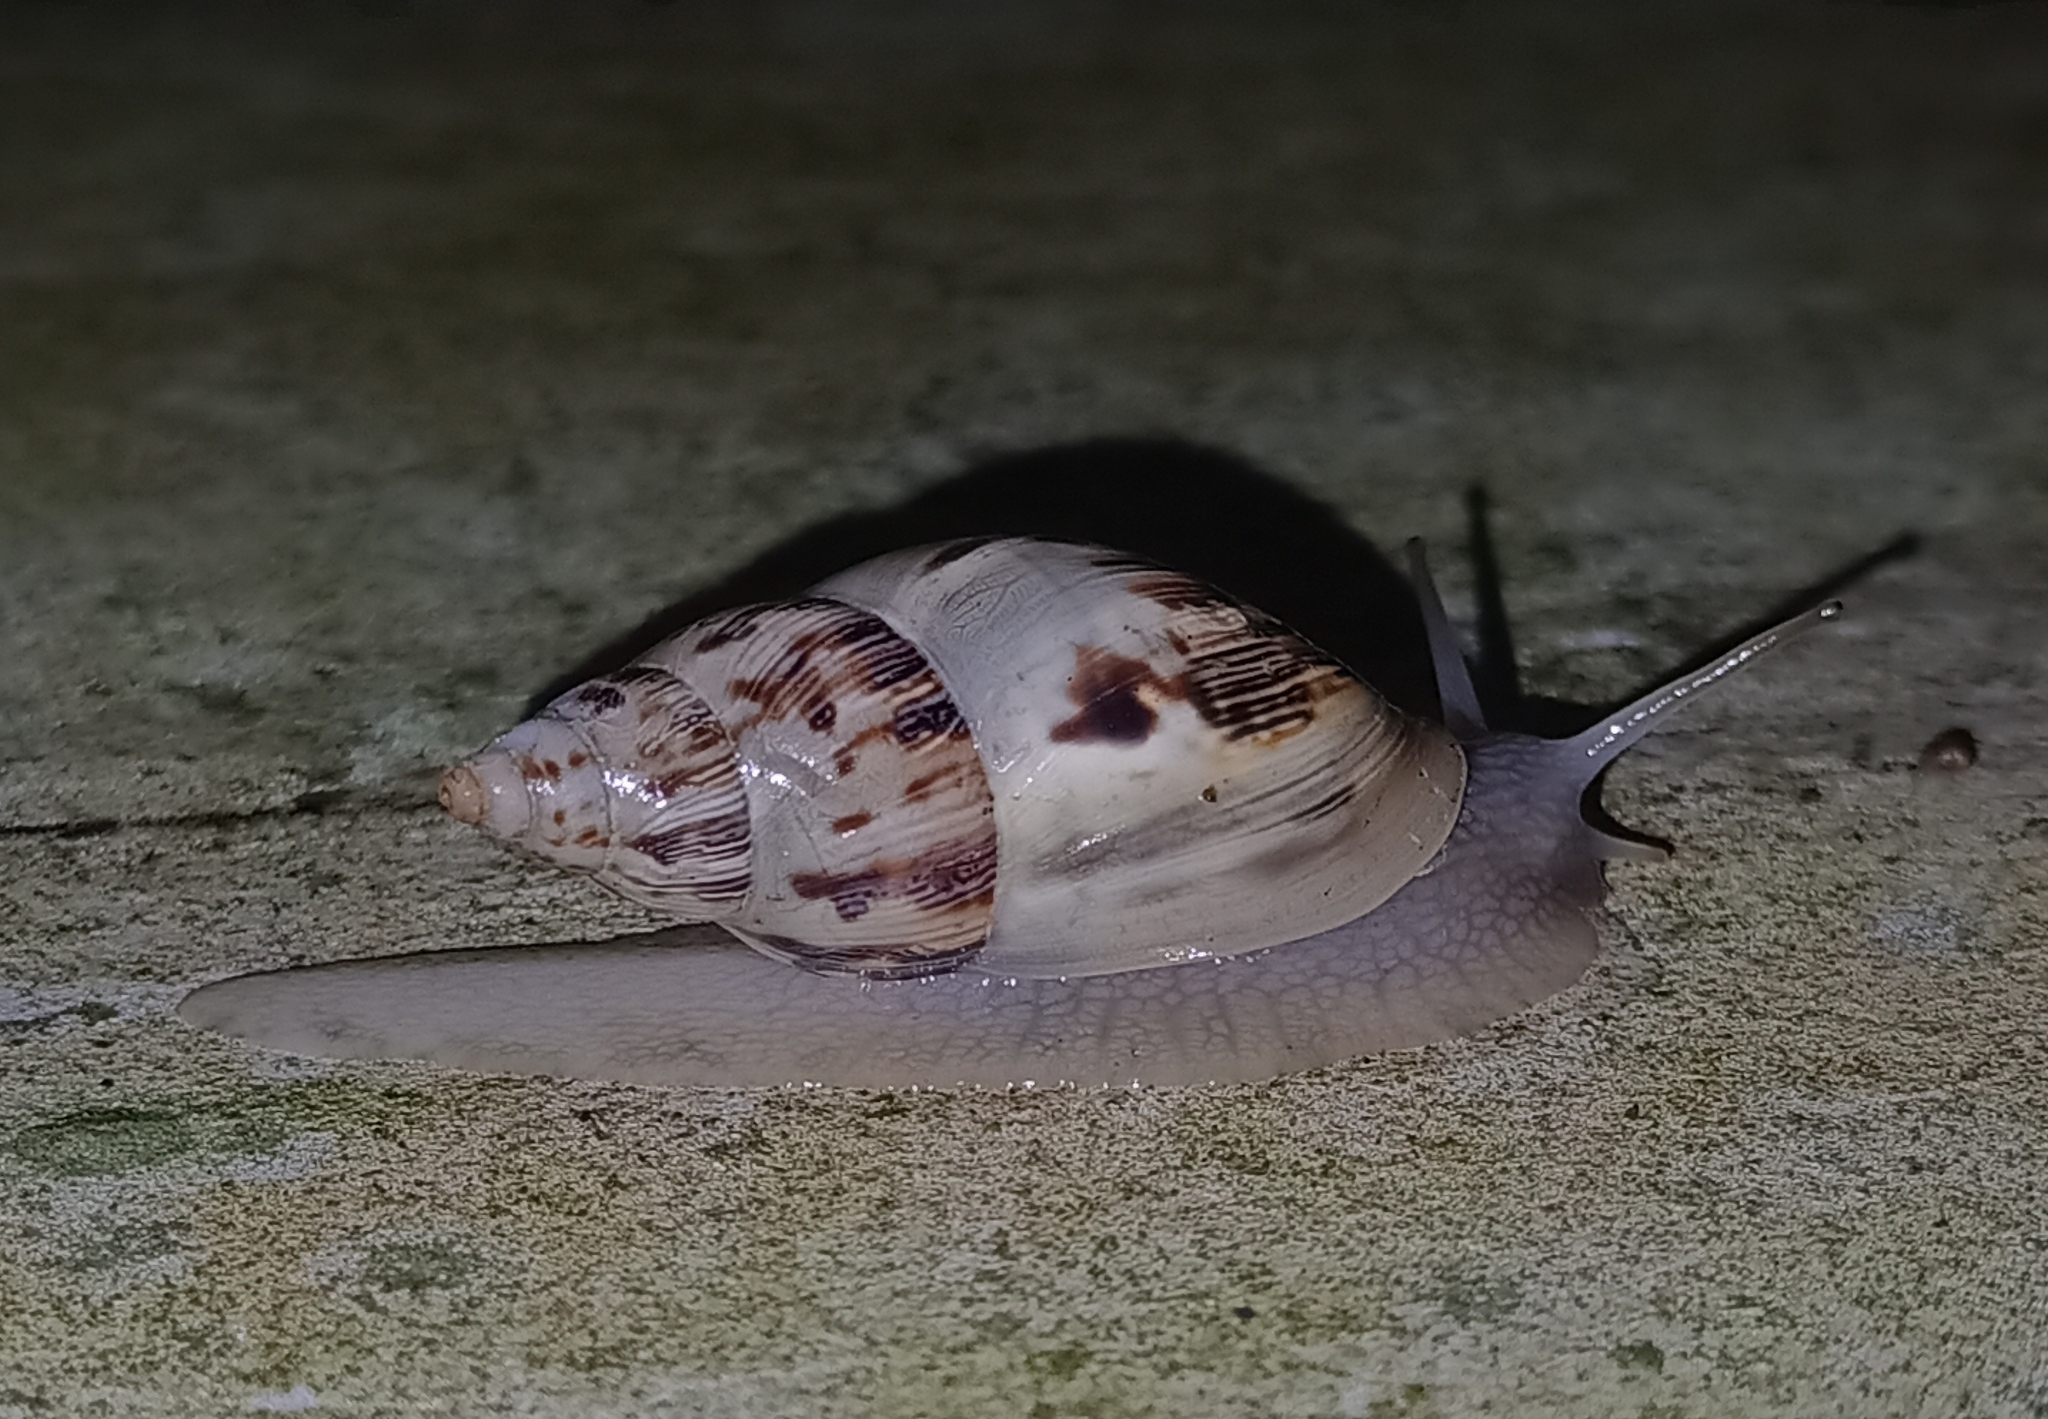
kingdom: Animalia
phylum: Mollusca
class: Gastropoda
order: Stylommatophora
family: Bulimulidae
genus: Drymaeus
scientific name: Drymaeus papyraceus
